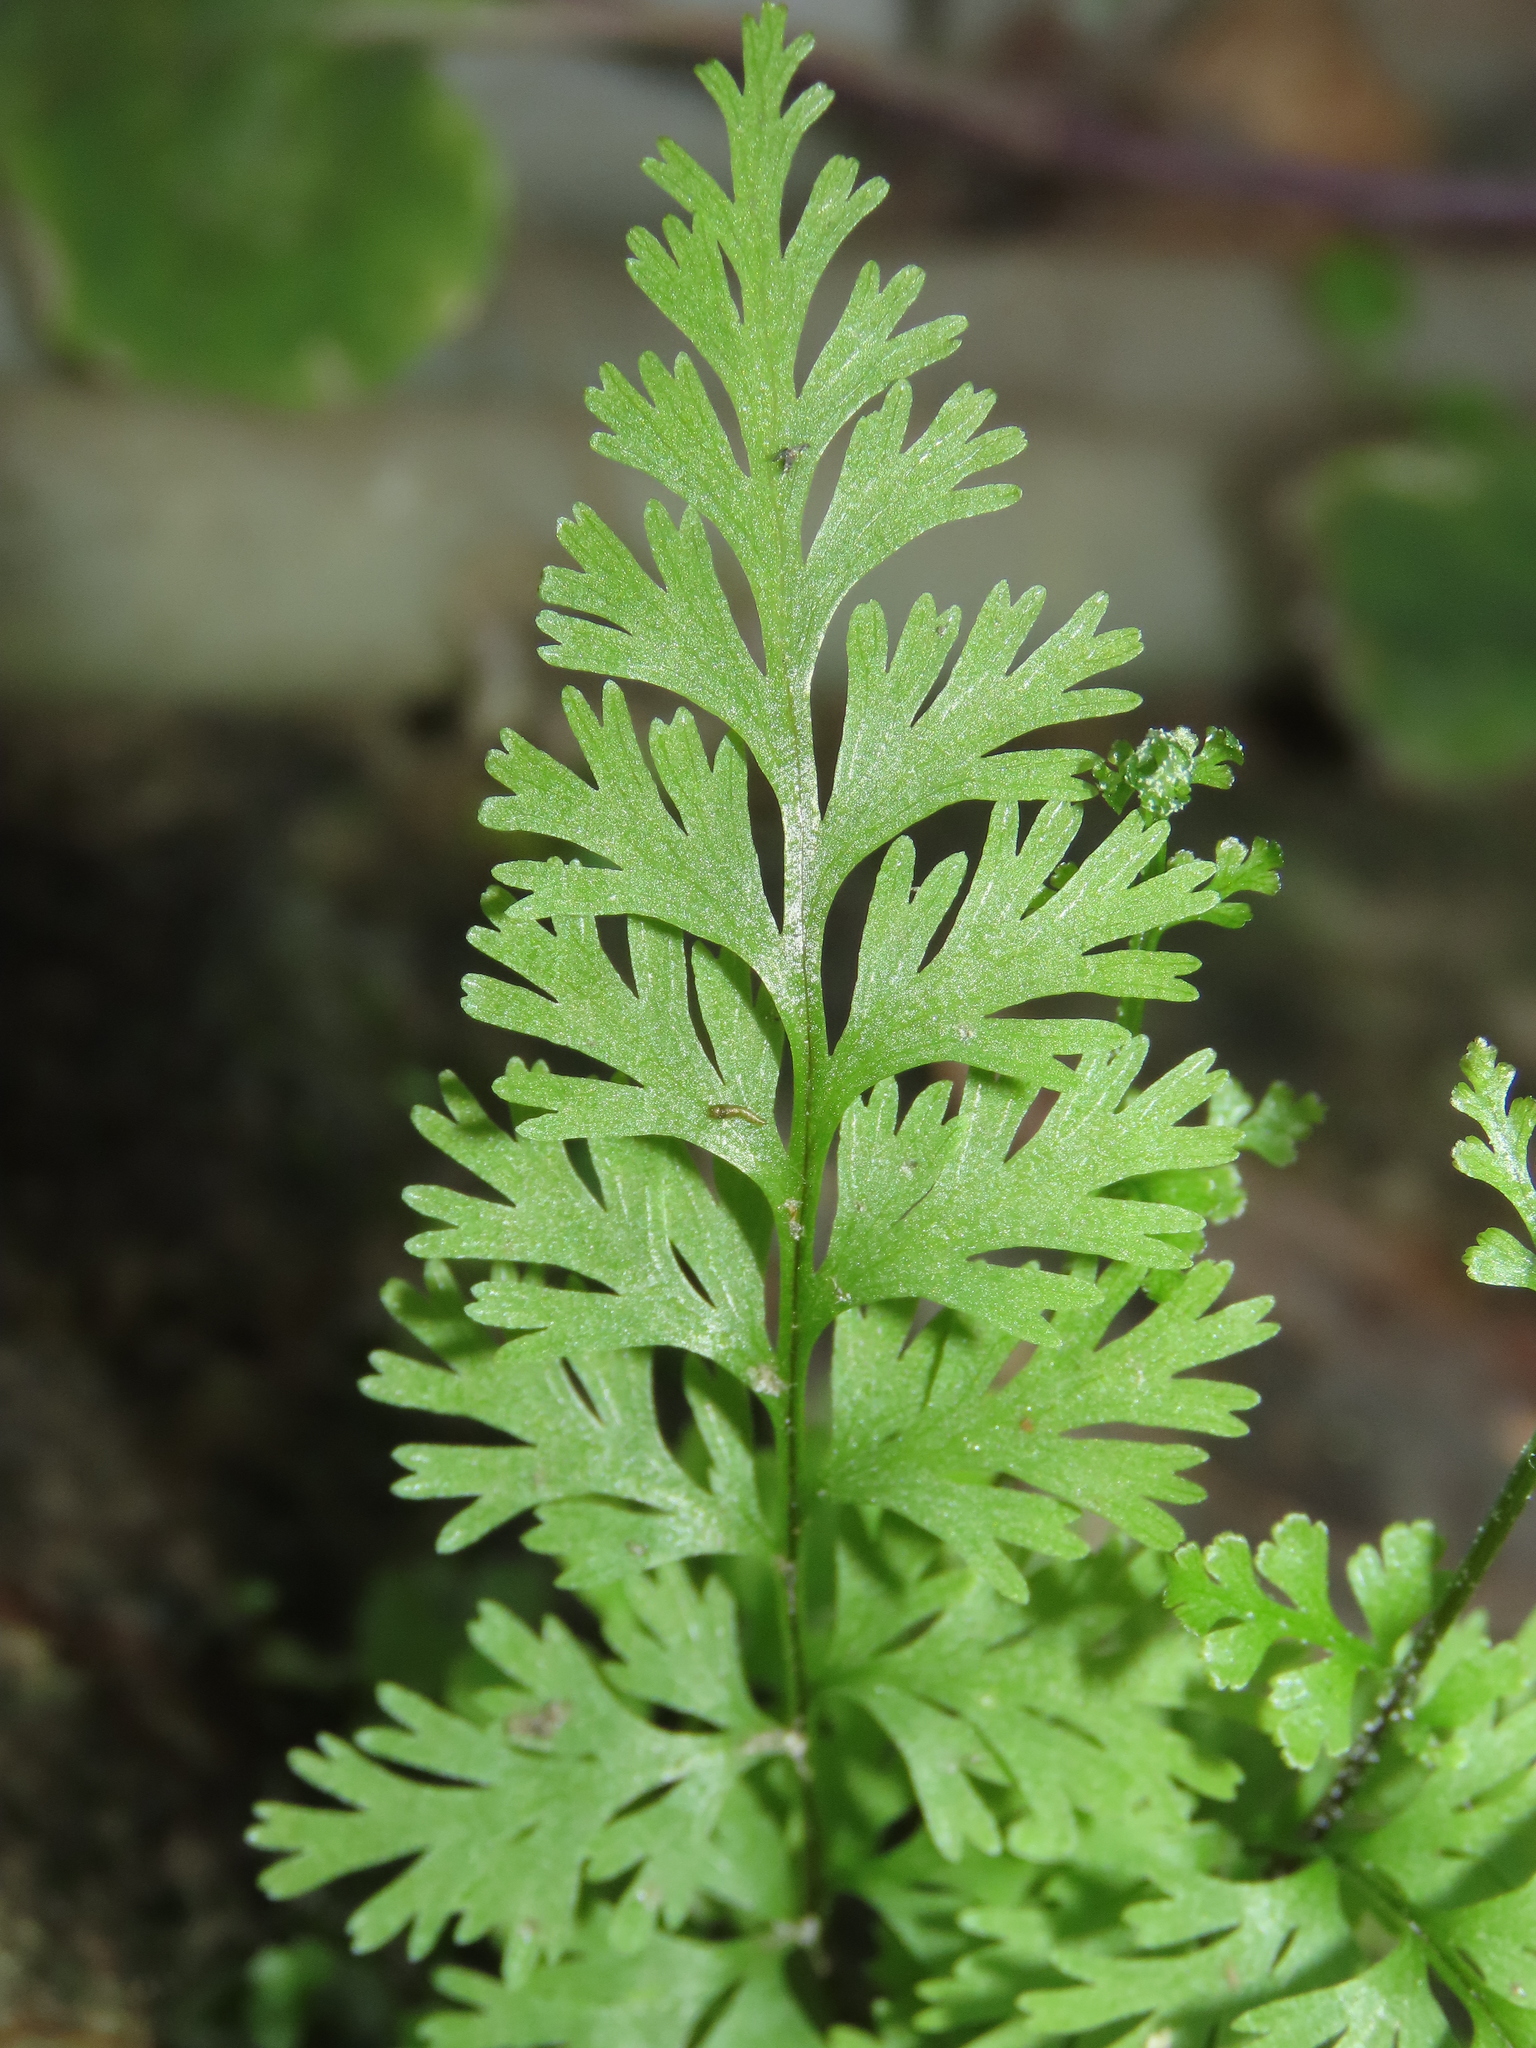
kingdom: Plantae
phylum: Tracheophyta
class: Polypodiopsida
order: Polypodiales
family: Pteridaceae
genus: Pityrogramma
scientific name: Pityrogramma calomelanos
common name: Dixie silverback fern
